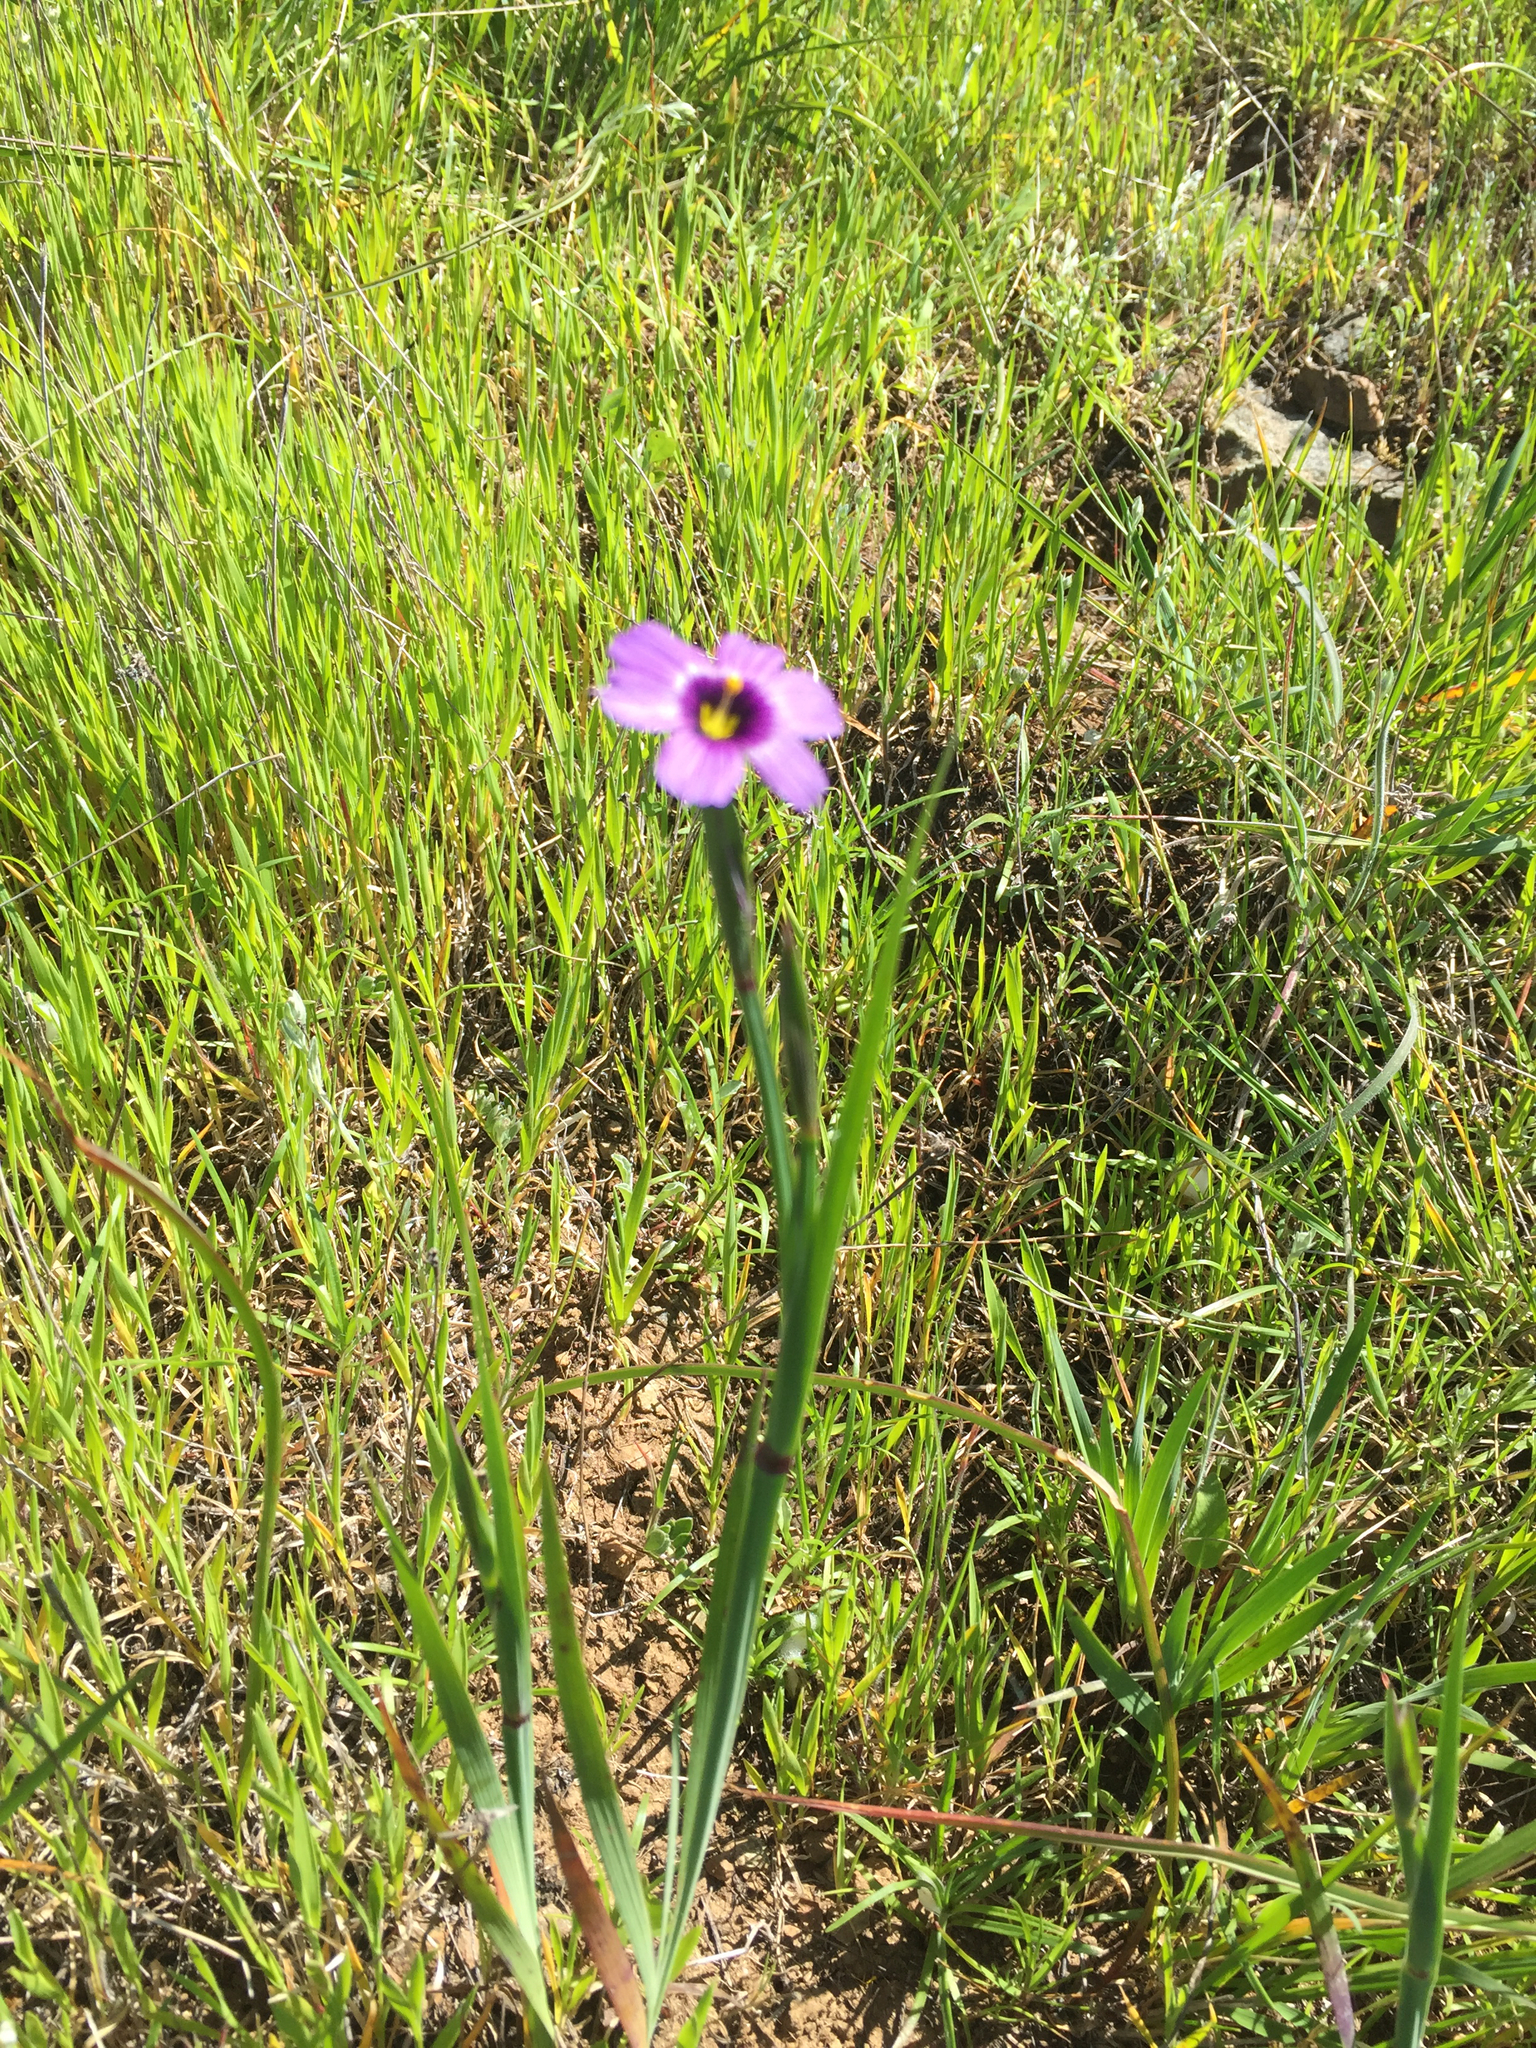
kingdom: Plantae
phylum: Tracheophyta
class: Liliopsida
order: Asparagales
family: Iridaceae
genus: Sisyrinchium
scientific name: Sisyrinchium bellum
